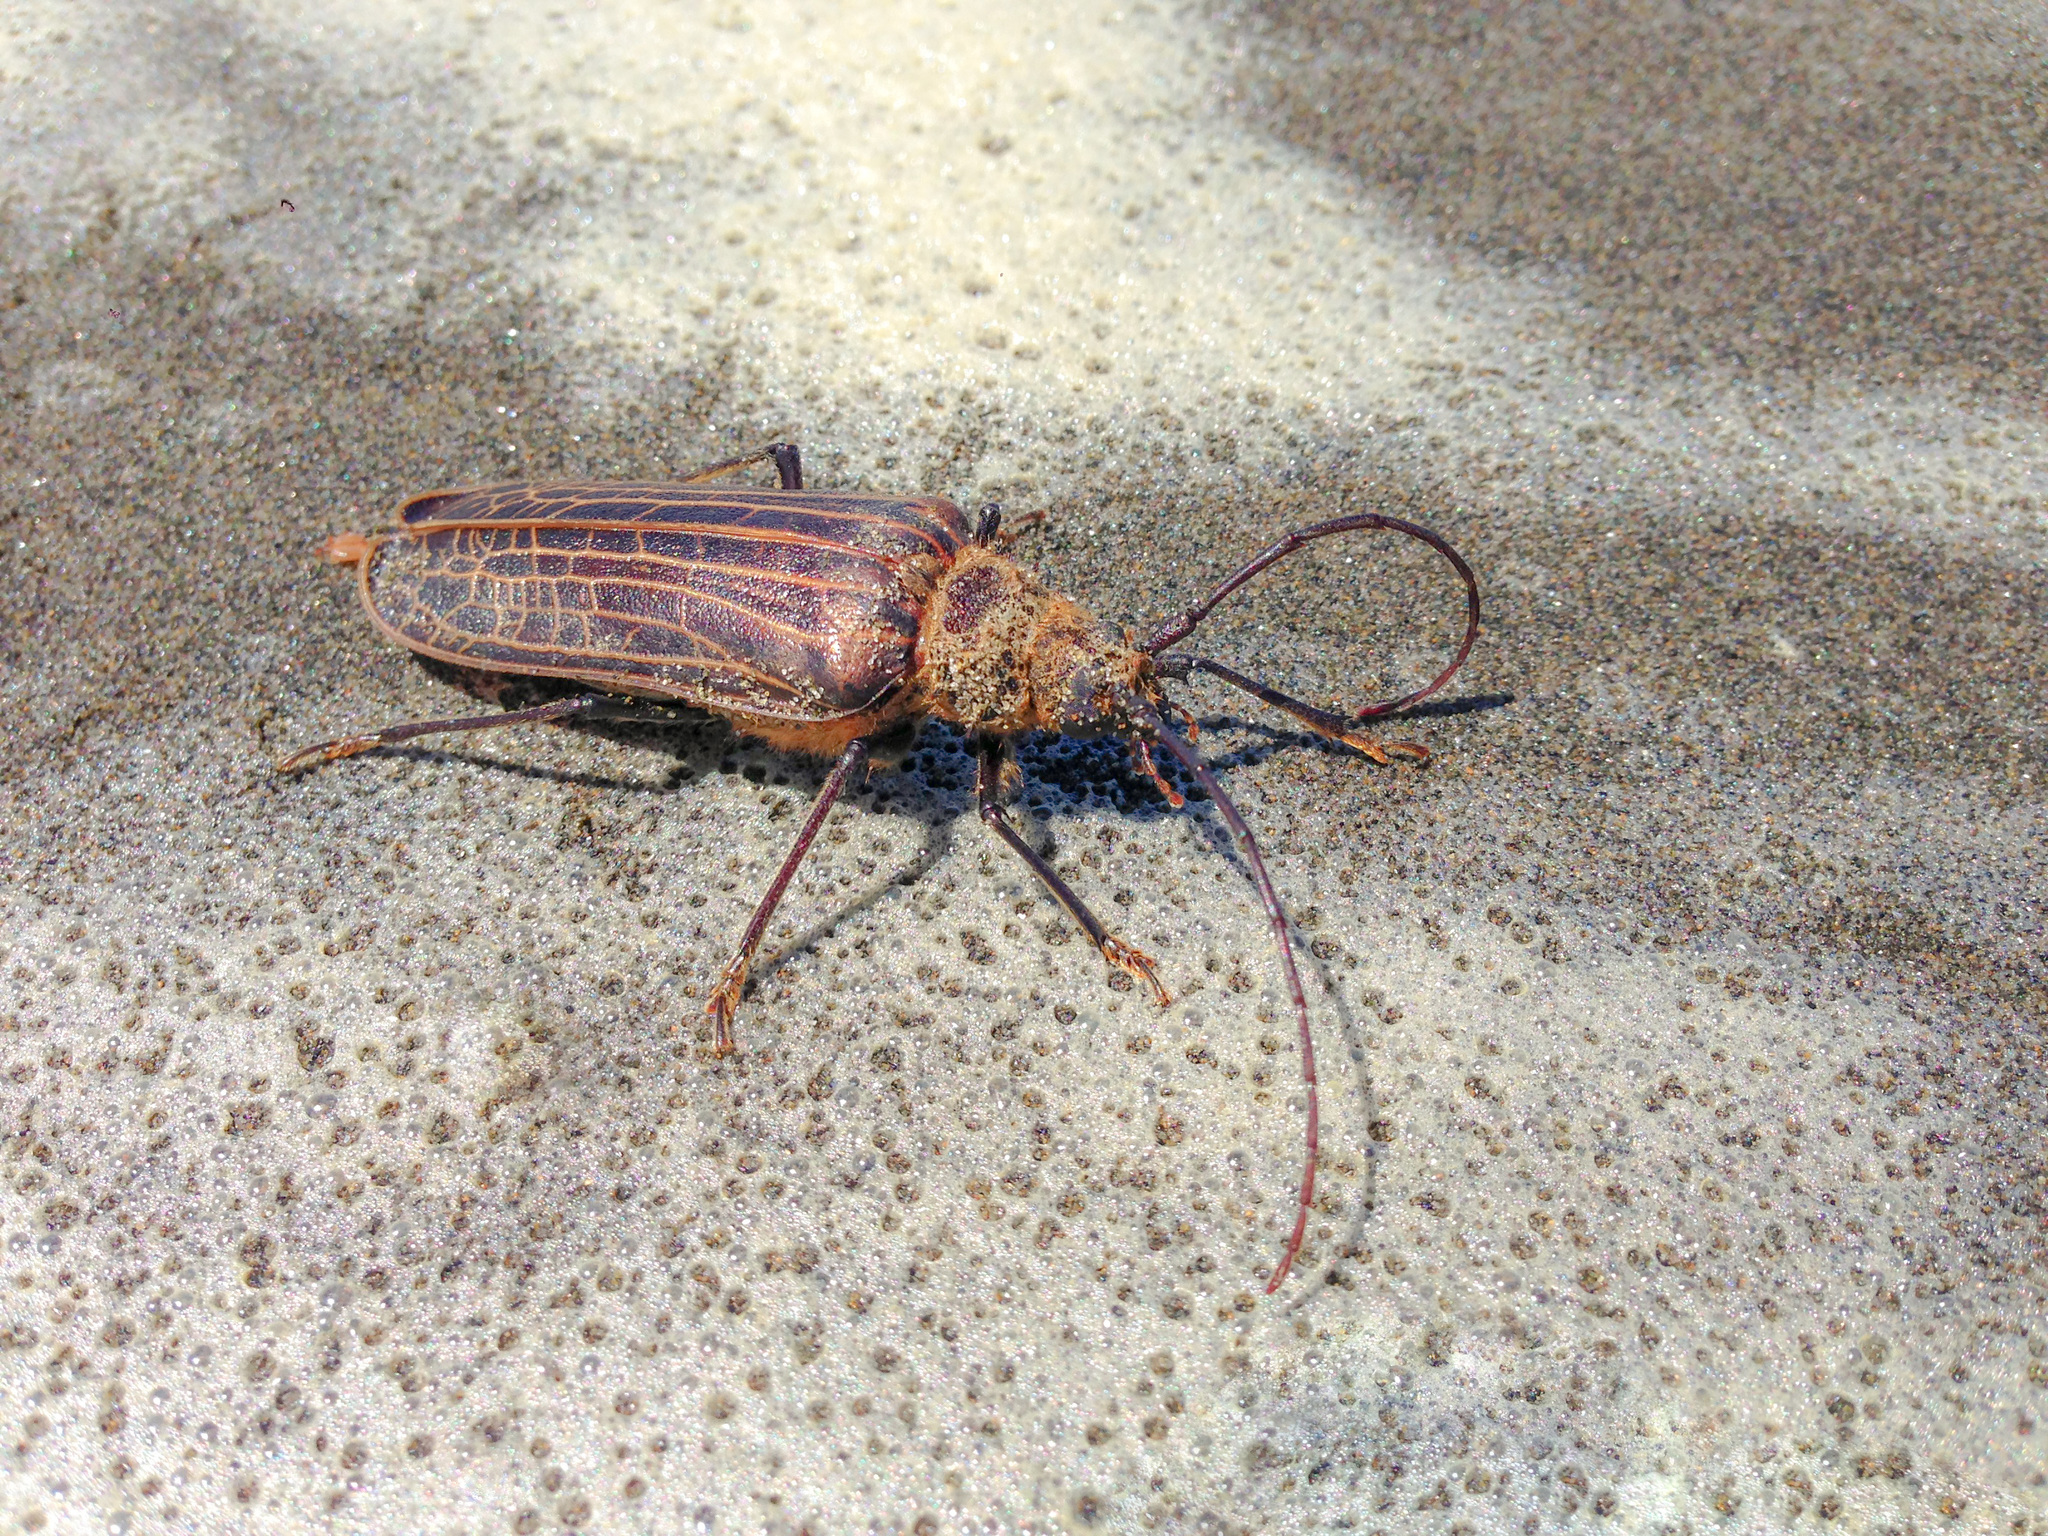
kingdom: Animalia
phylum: Arthropoda
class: Insecta
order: Coleoptera
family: Cerambycidae
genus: Prionoplus
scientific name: Prionoplus reticularis
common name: Huhu beetle
